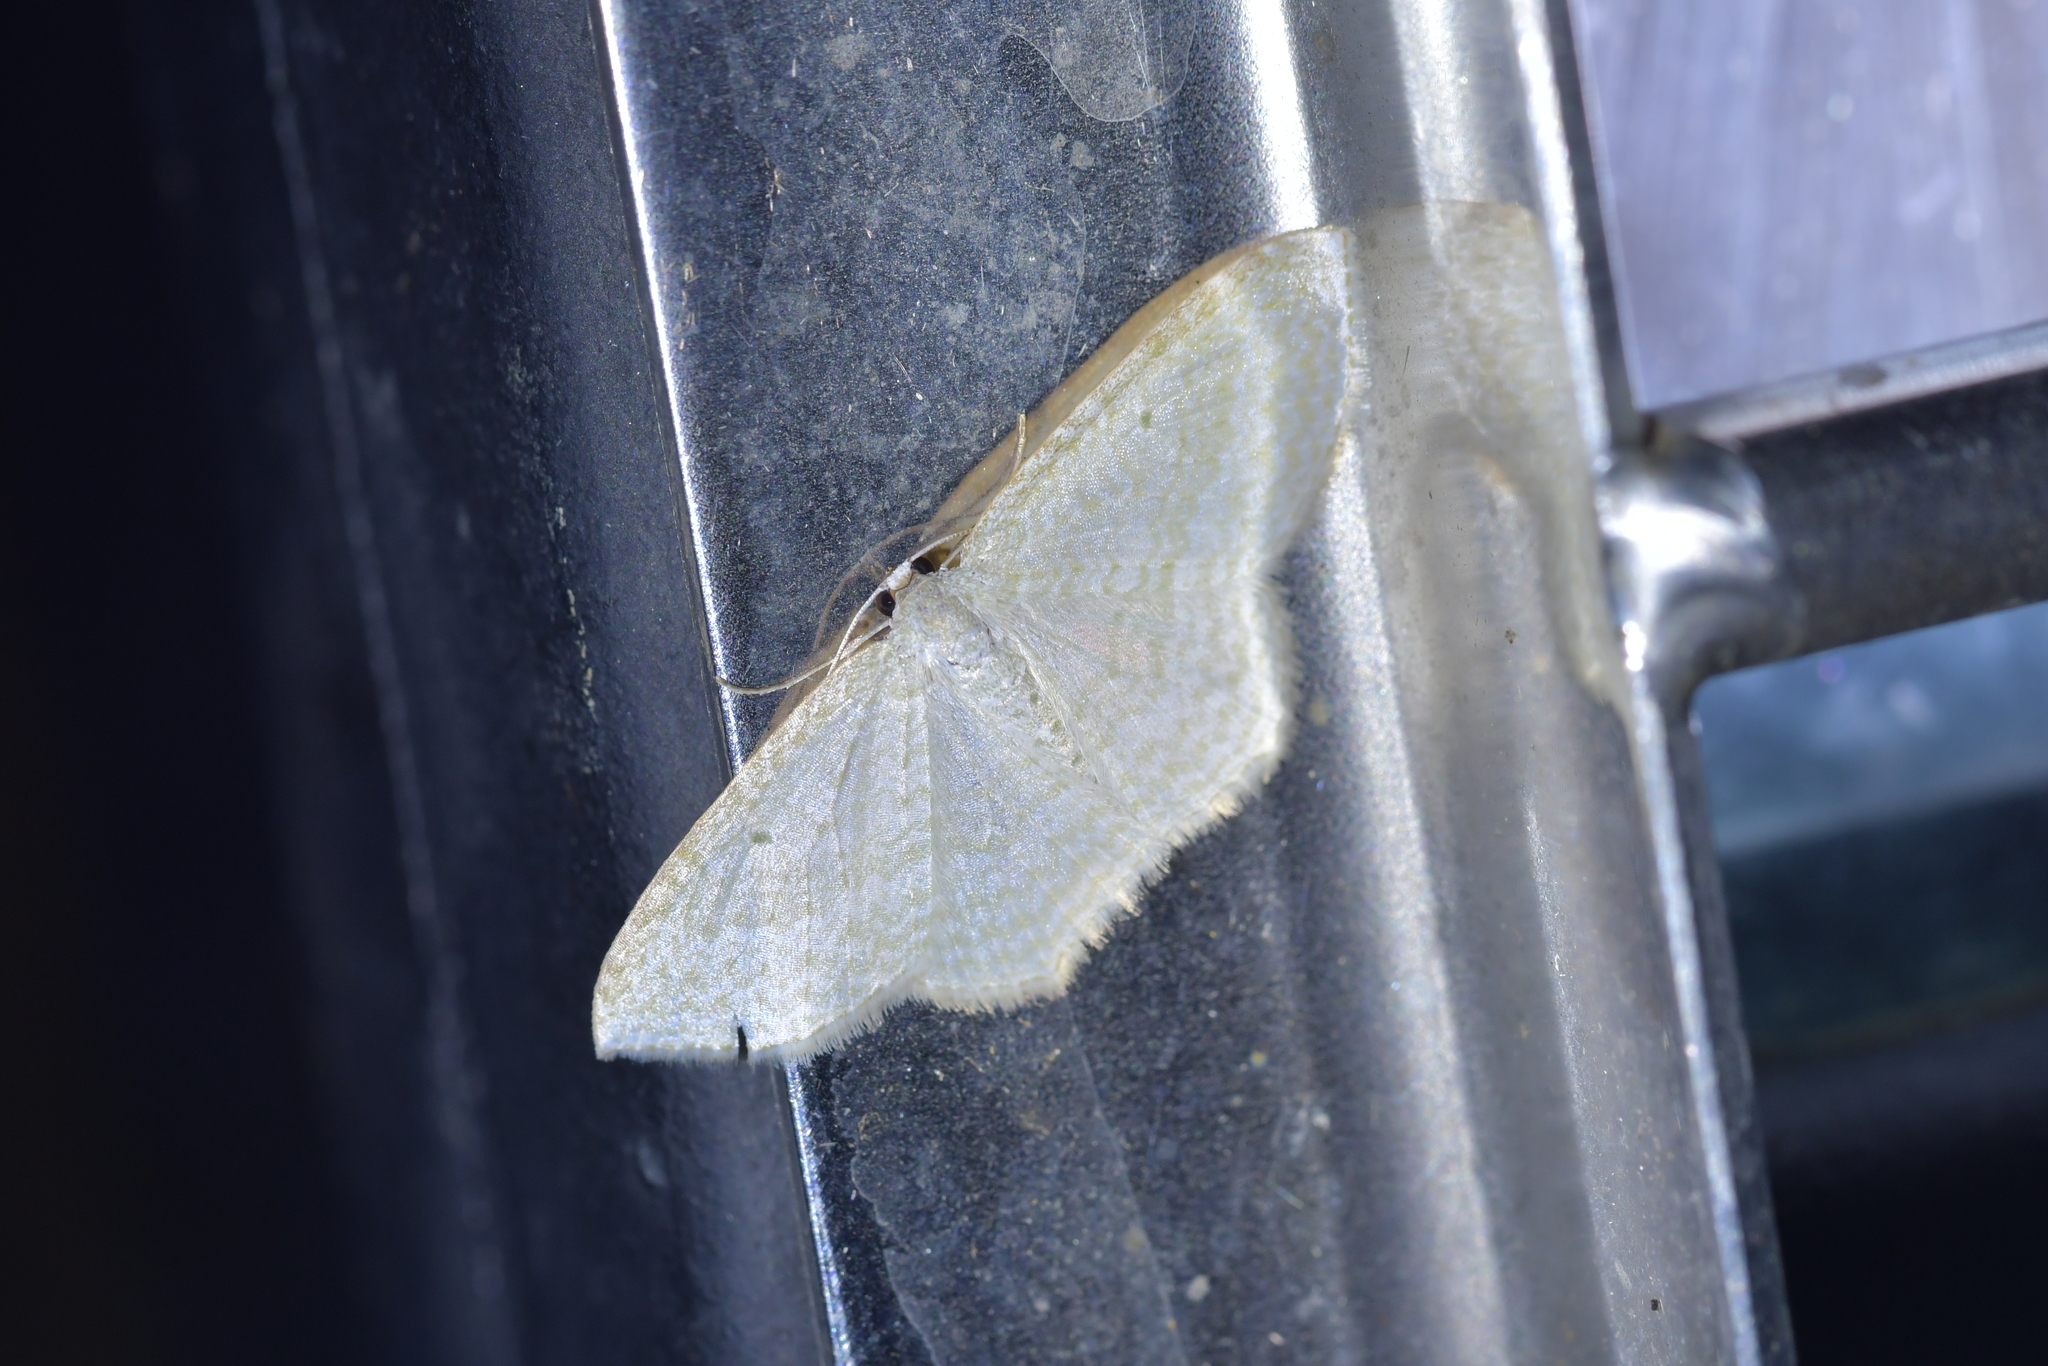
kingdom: Animalia
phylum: Arthropoda
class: Insecta
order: Lepidoptera
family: Geometridae
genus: Poecilasthena
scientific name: Poecilasthena pulchraria
